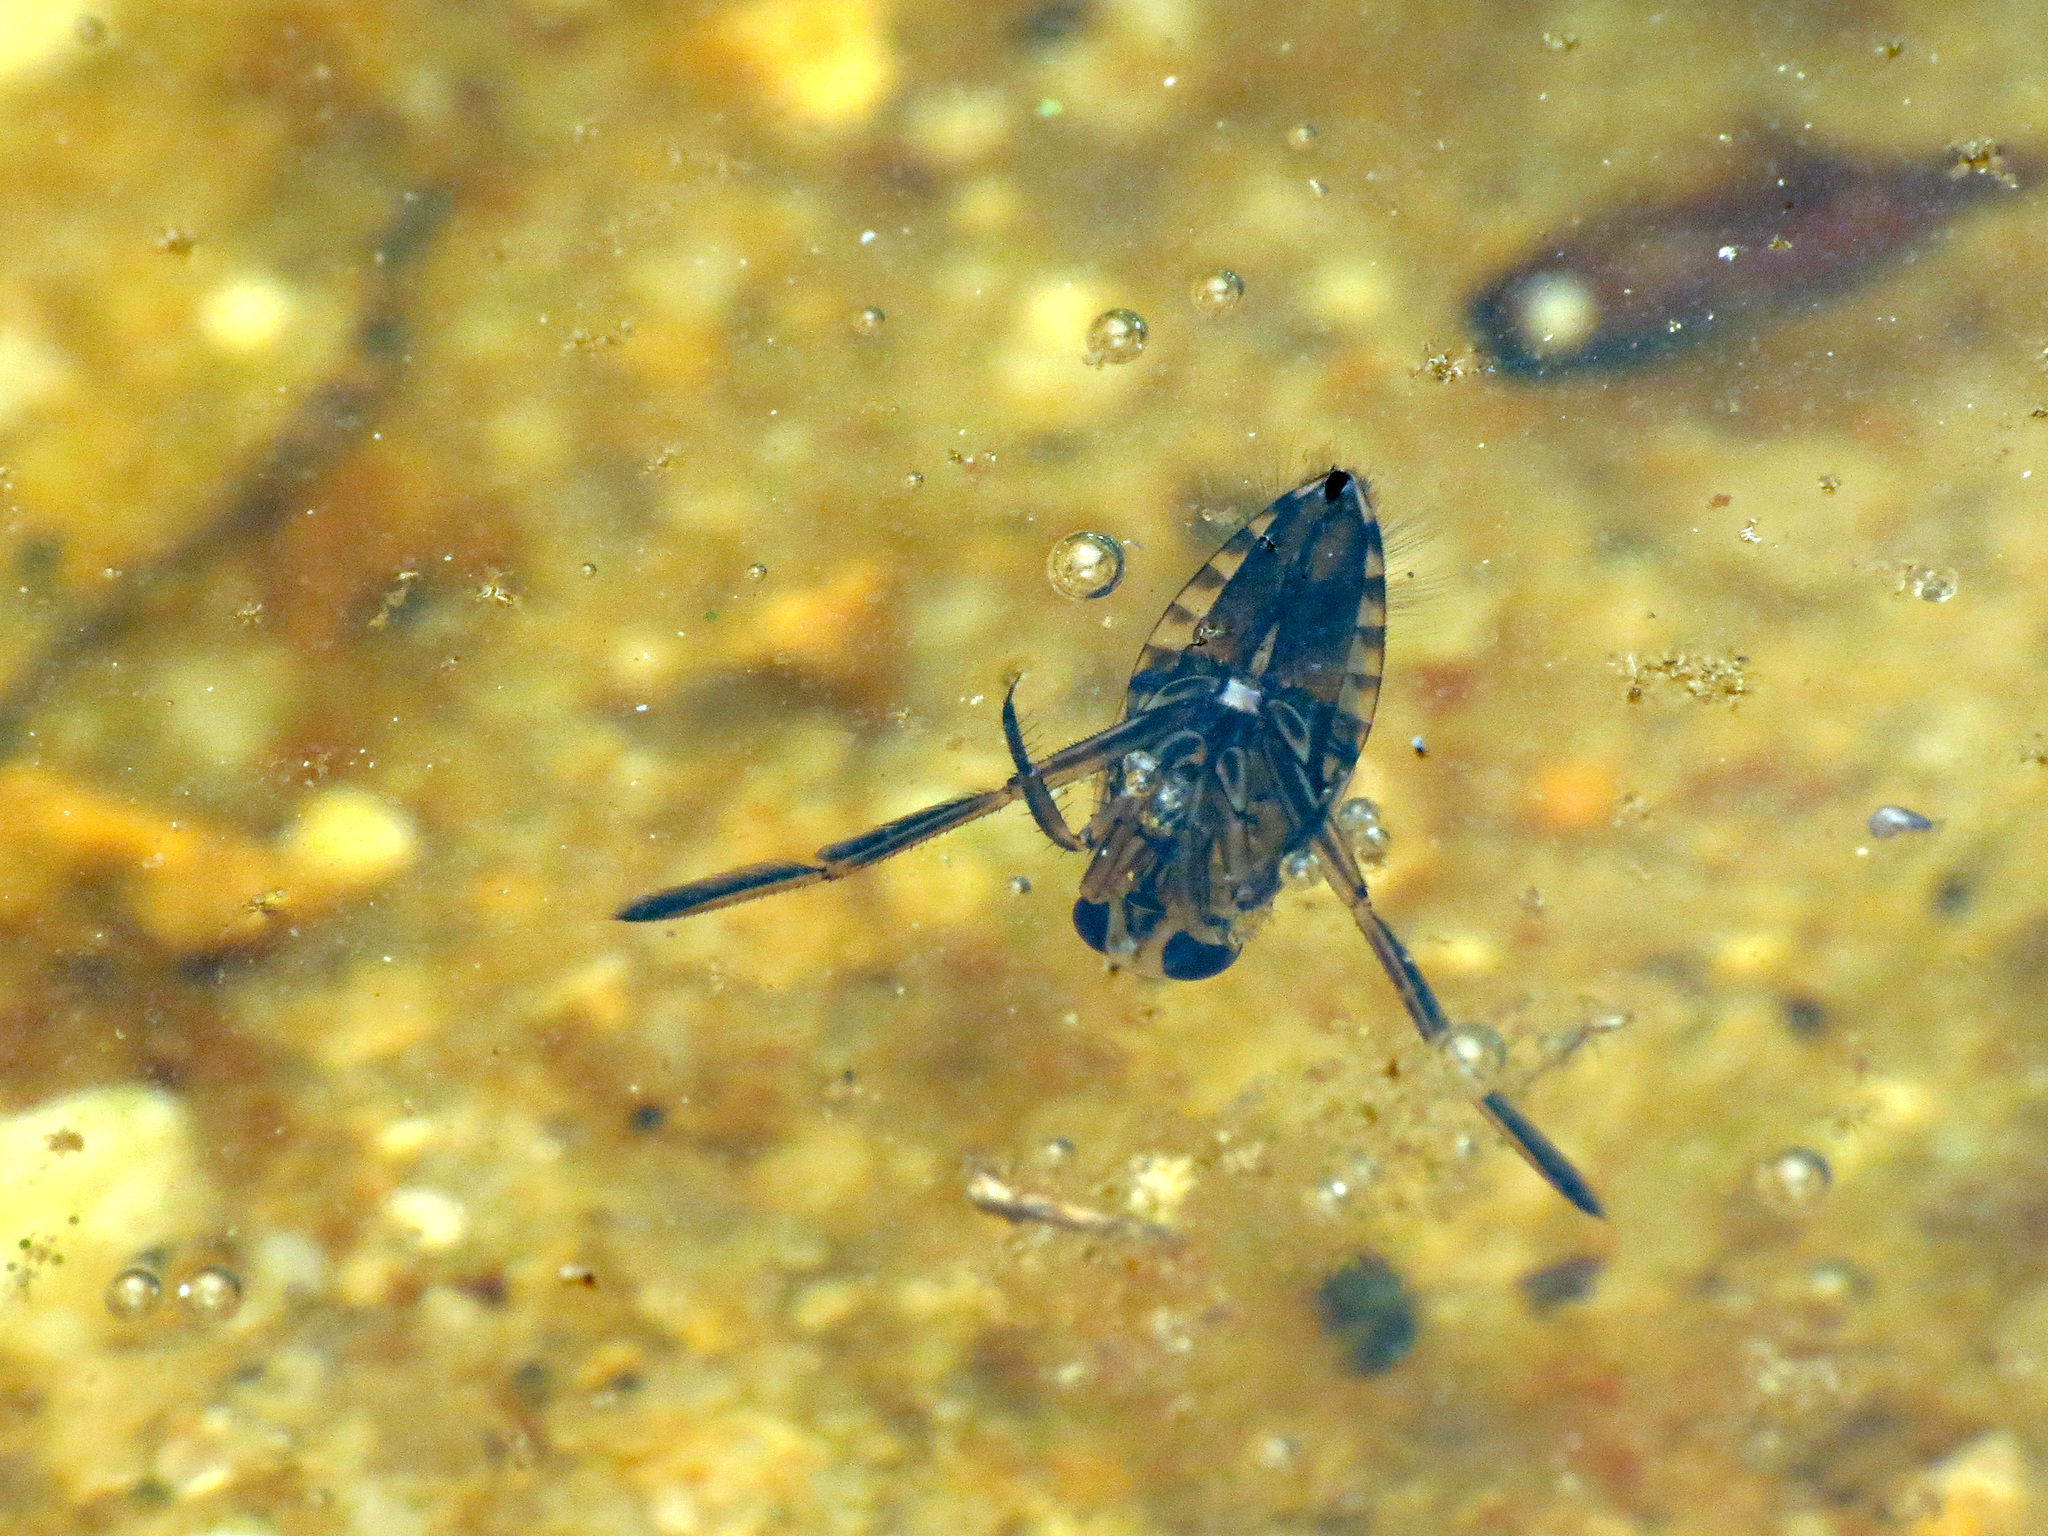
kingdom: Animalia
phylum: Arthropoda
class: Insecta
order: Hemiptera
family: Notonectidae
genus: Notonecta
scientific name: Notonecta
